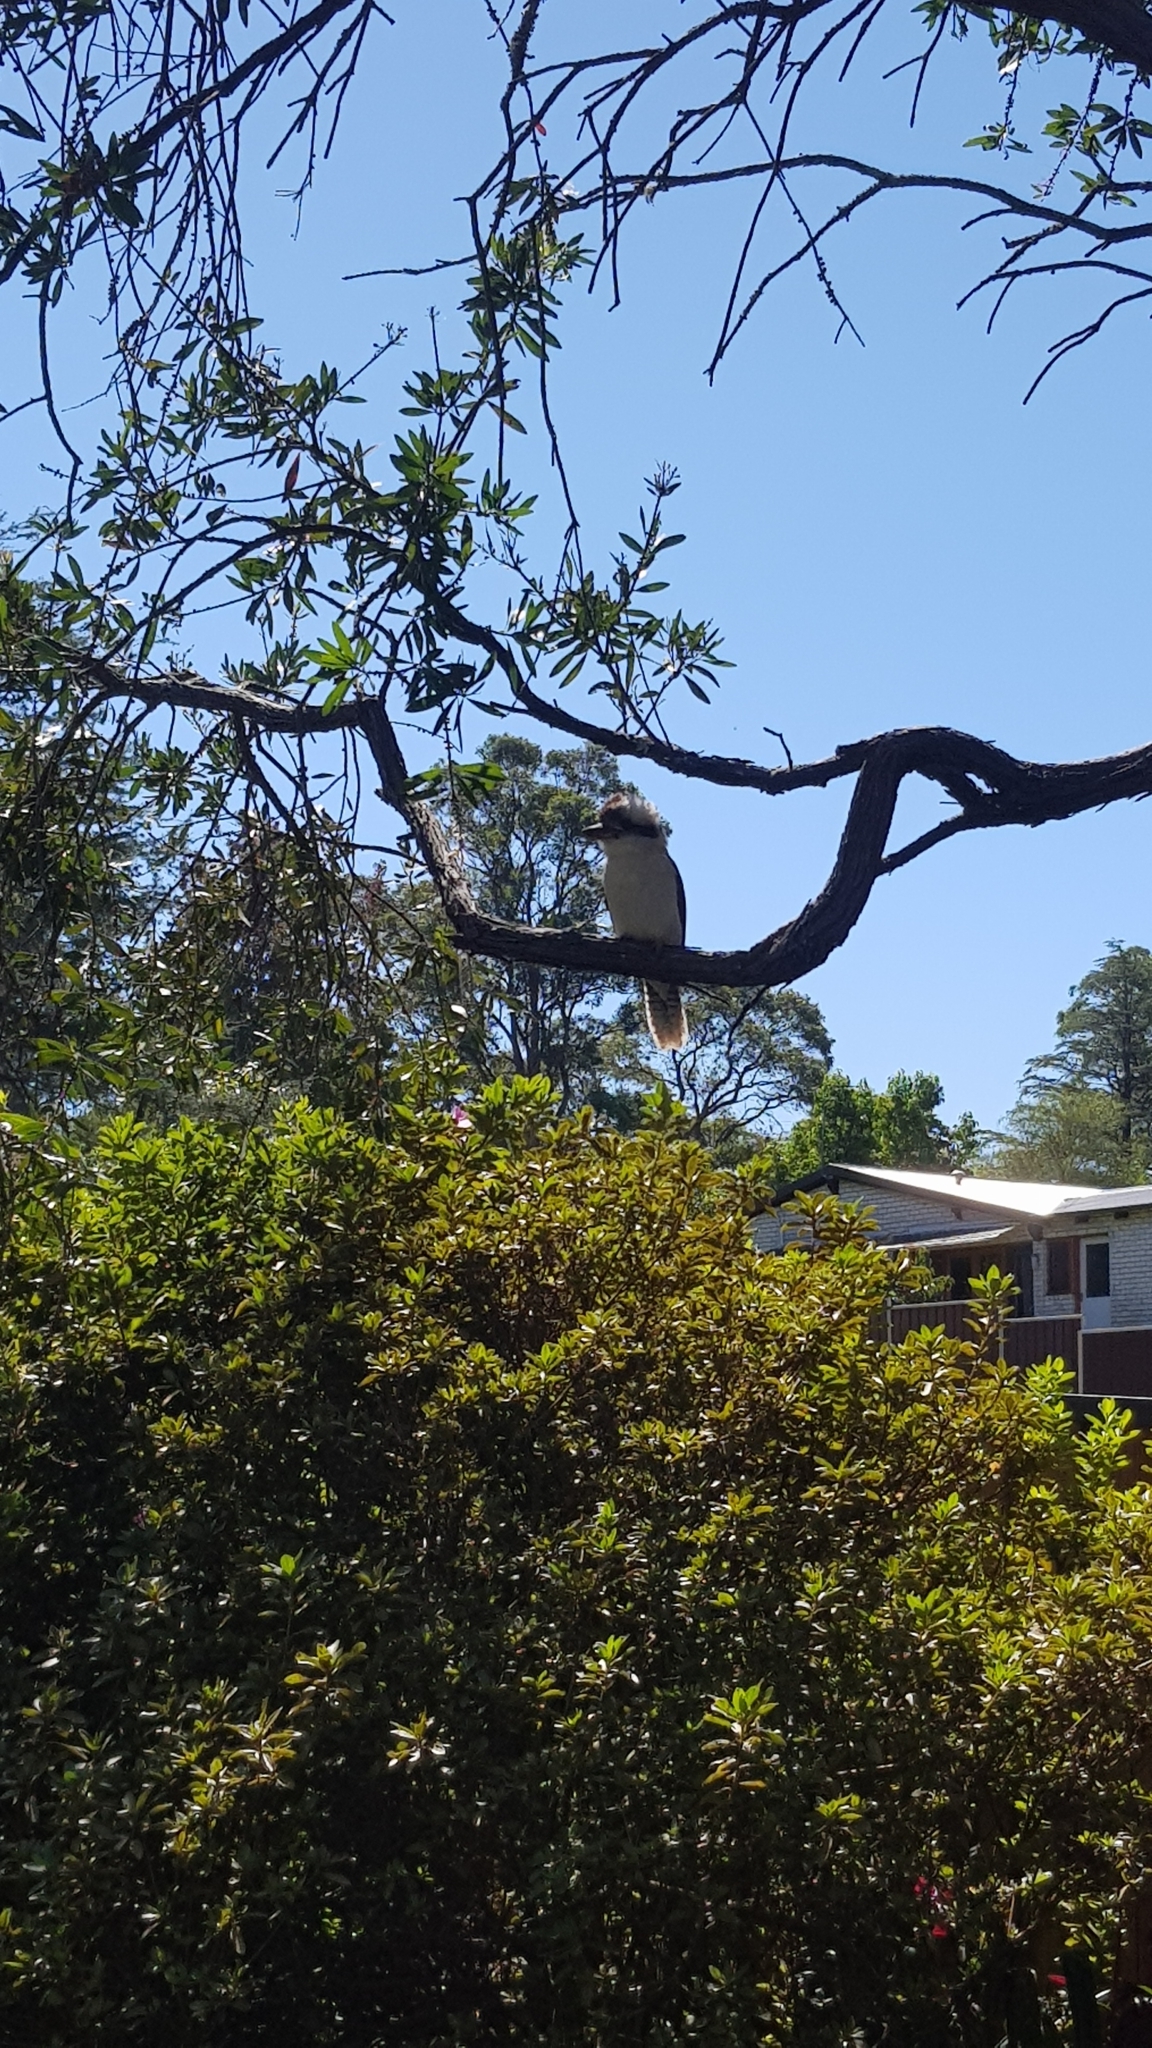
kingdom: Animalia
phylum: Chordata
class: Aves
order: Coraciiformes
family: Alcedinidae
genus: Dacelo
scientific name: Dacelo novaeguineae
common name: Laughing kookaburra
